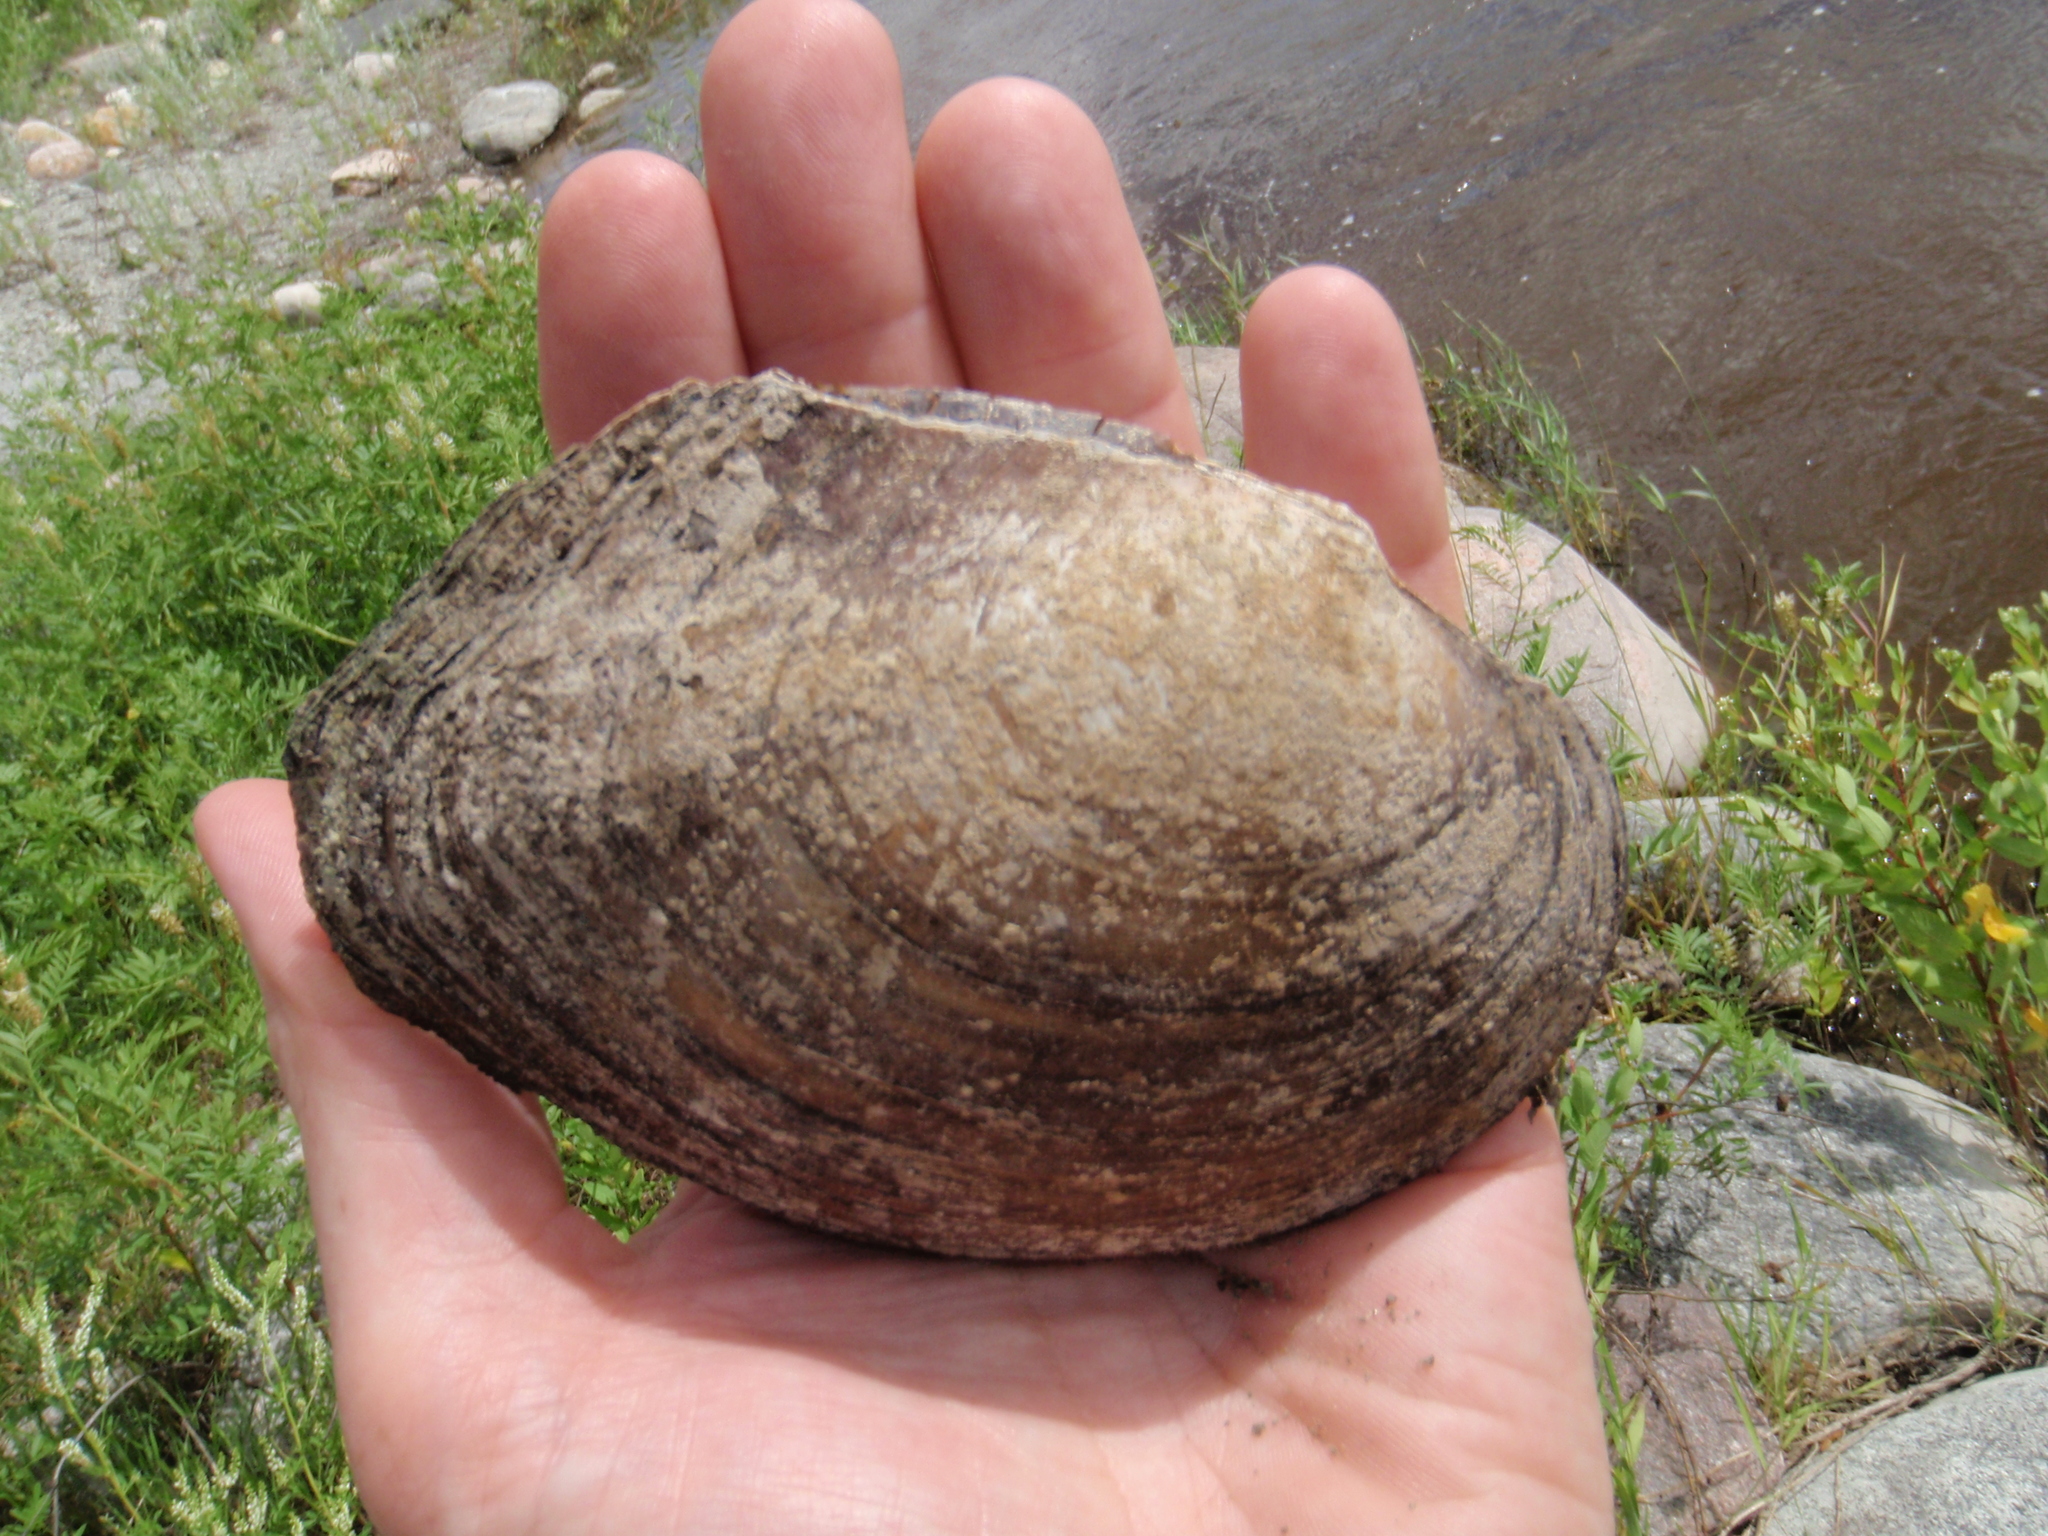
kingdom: Animalia
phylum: Mollusca
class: Bivalvia
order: Unionida
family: Unionidae
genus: Lasmigona
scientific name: Lasmigona complanata
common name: White heelsplitter
